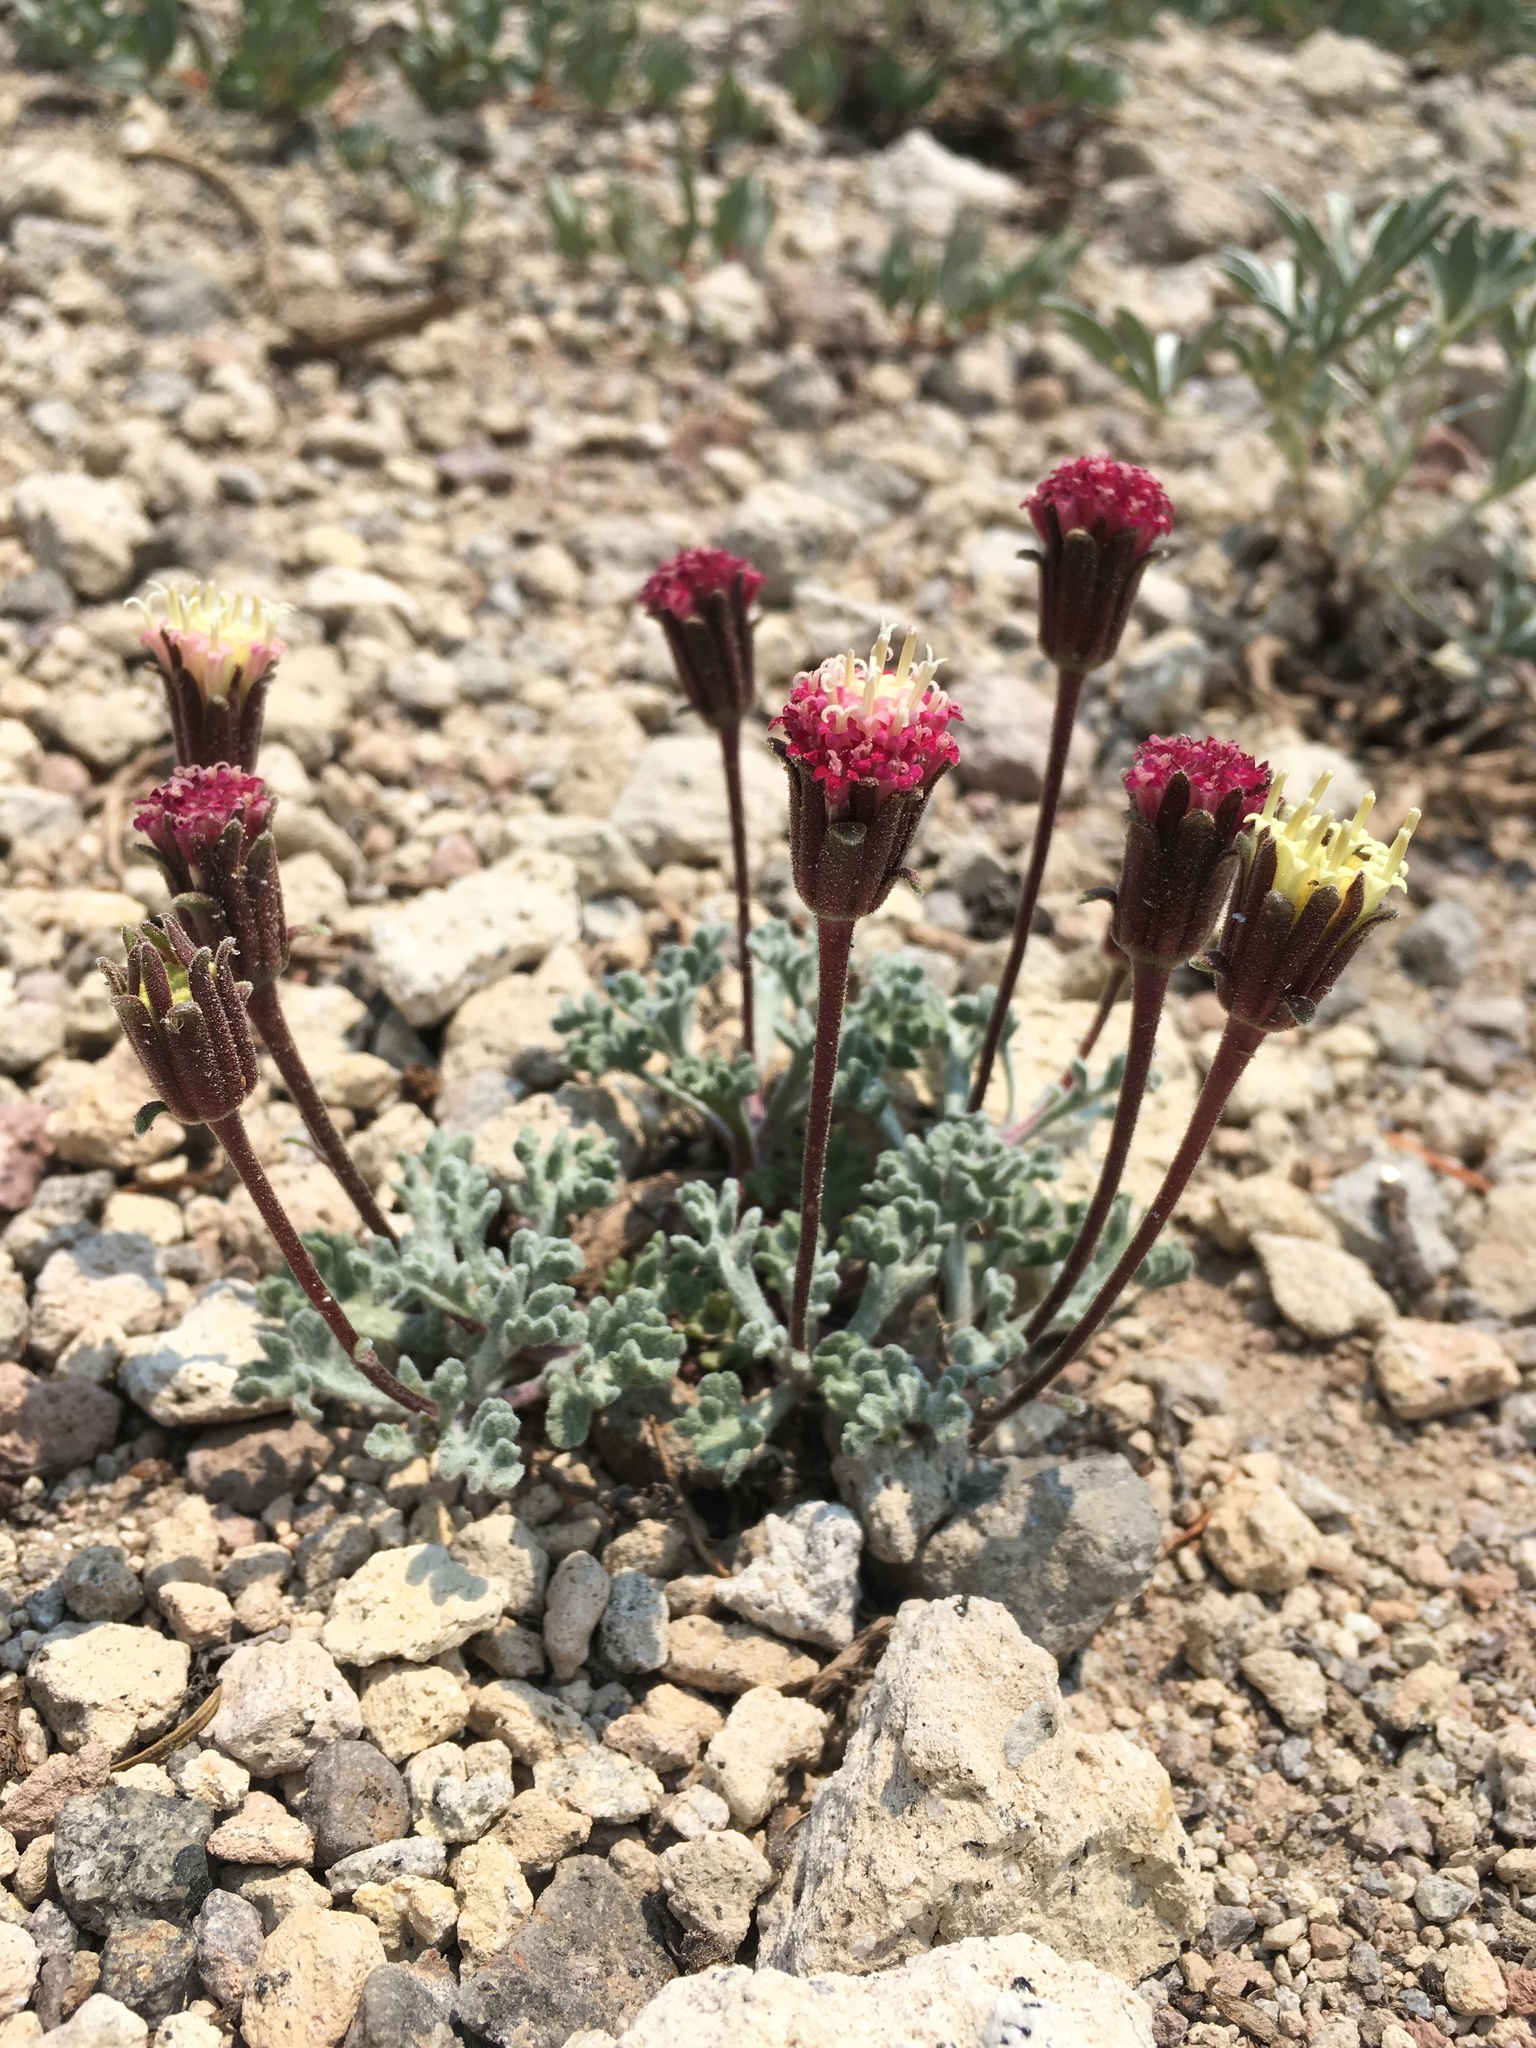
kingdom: Plantae
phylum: Tracheophyta
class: Magnoliopsida
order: Asterales
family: Asteraceae
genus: Chaenactis
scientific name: Chaenactis nevadensis
